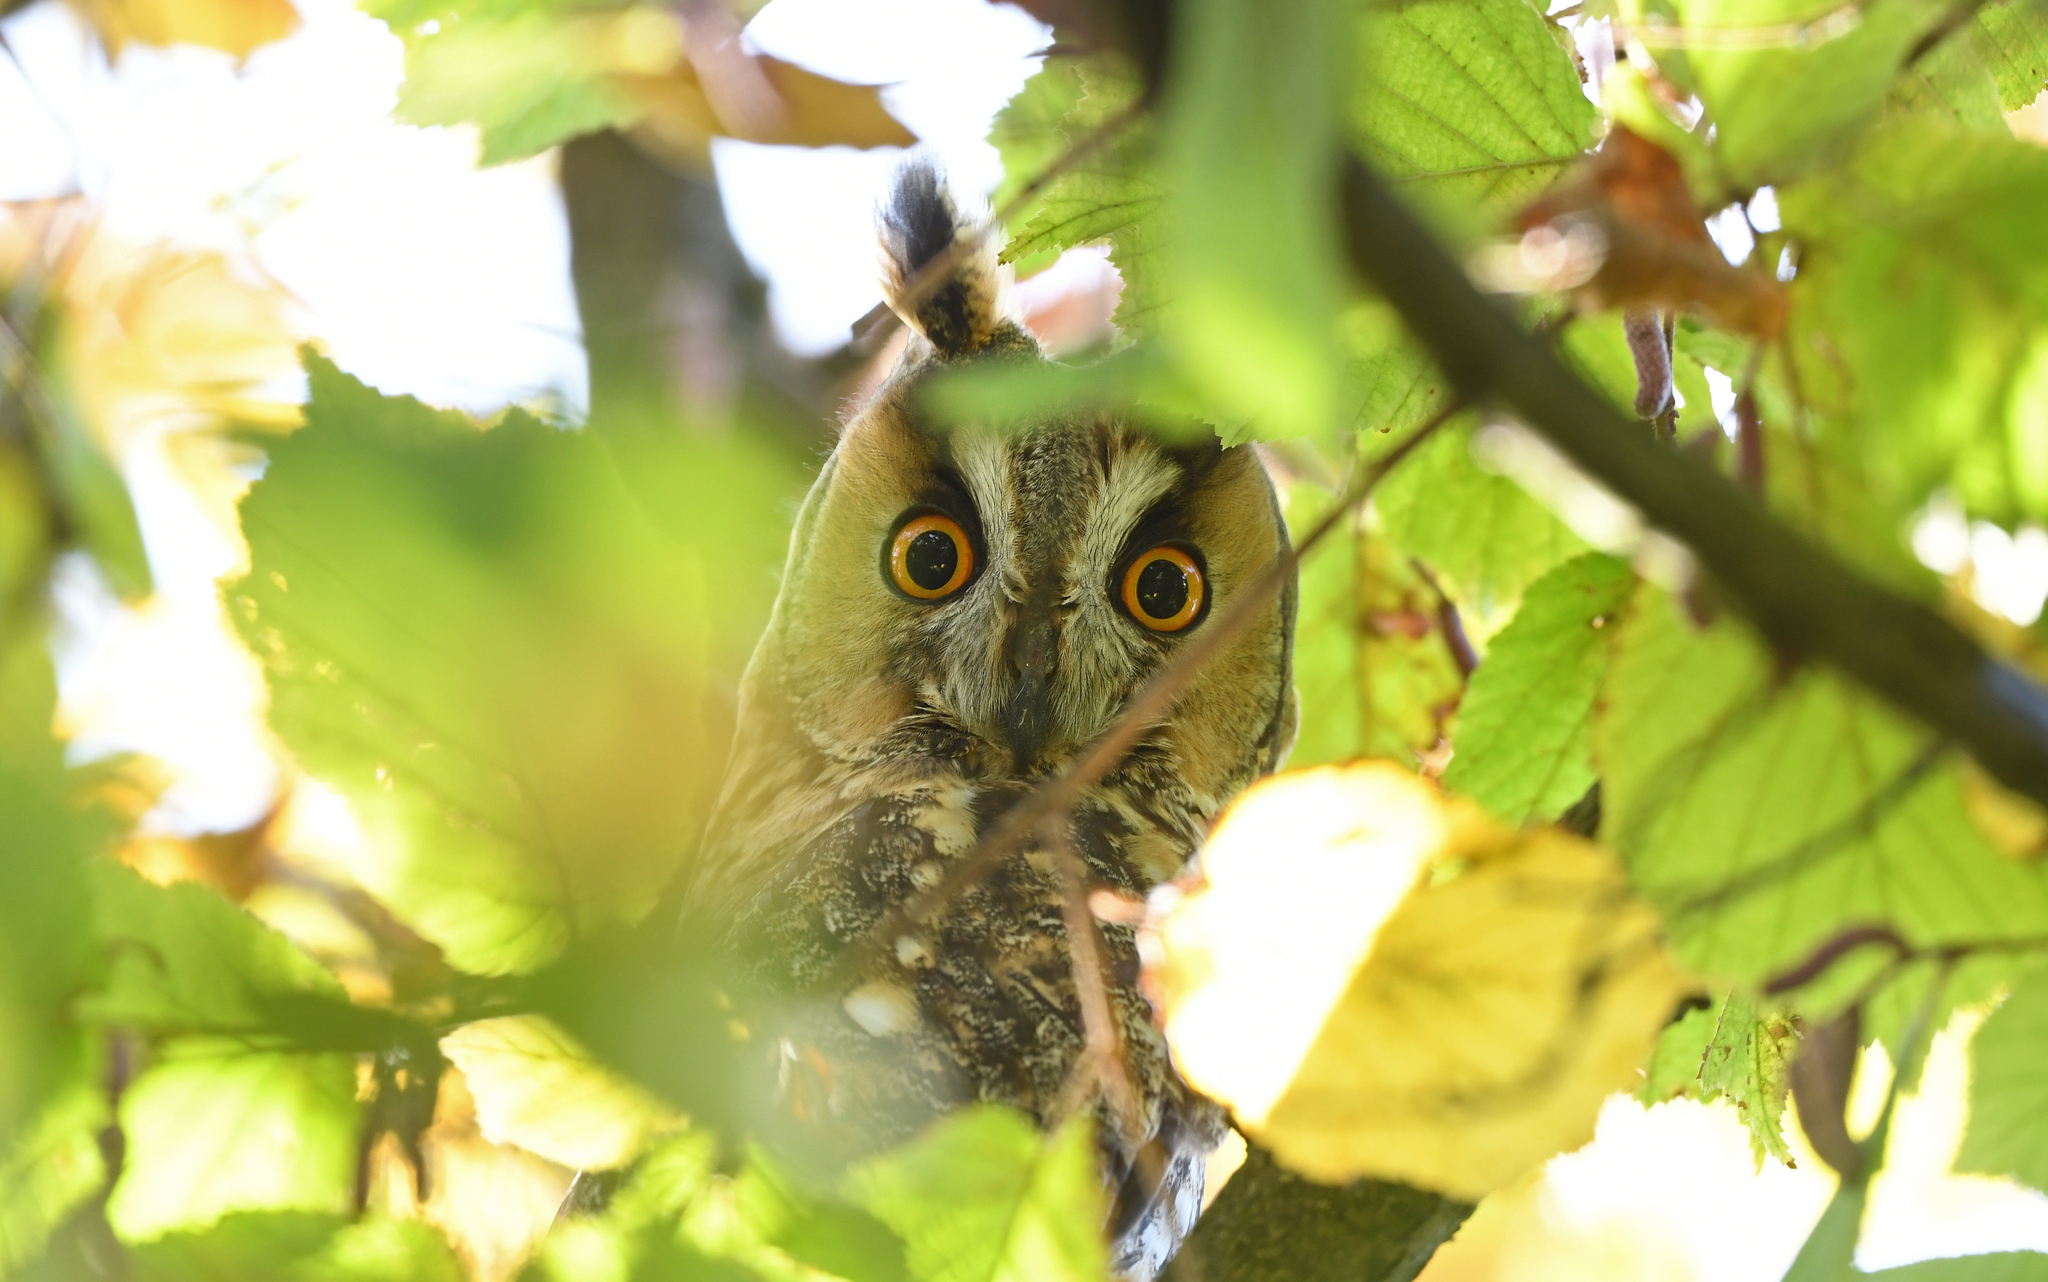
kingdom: Animalia
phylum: Chordata
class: Aves
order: Strigiformes
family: Strigidae
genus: Asio
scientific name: Asio otus
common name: Long-eared owl
